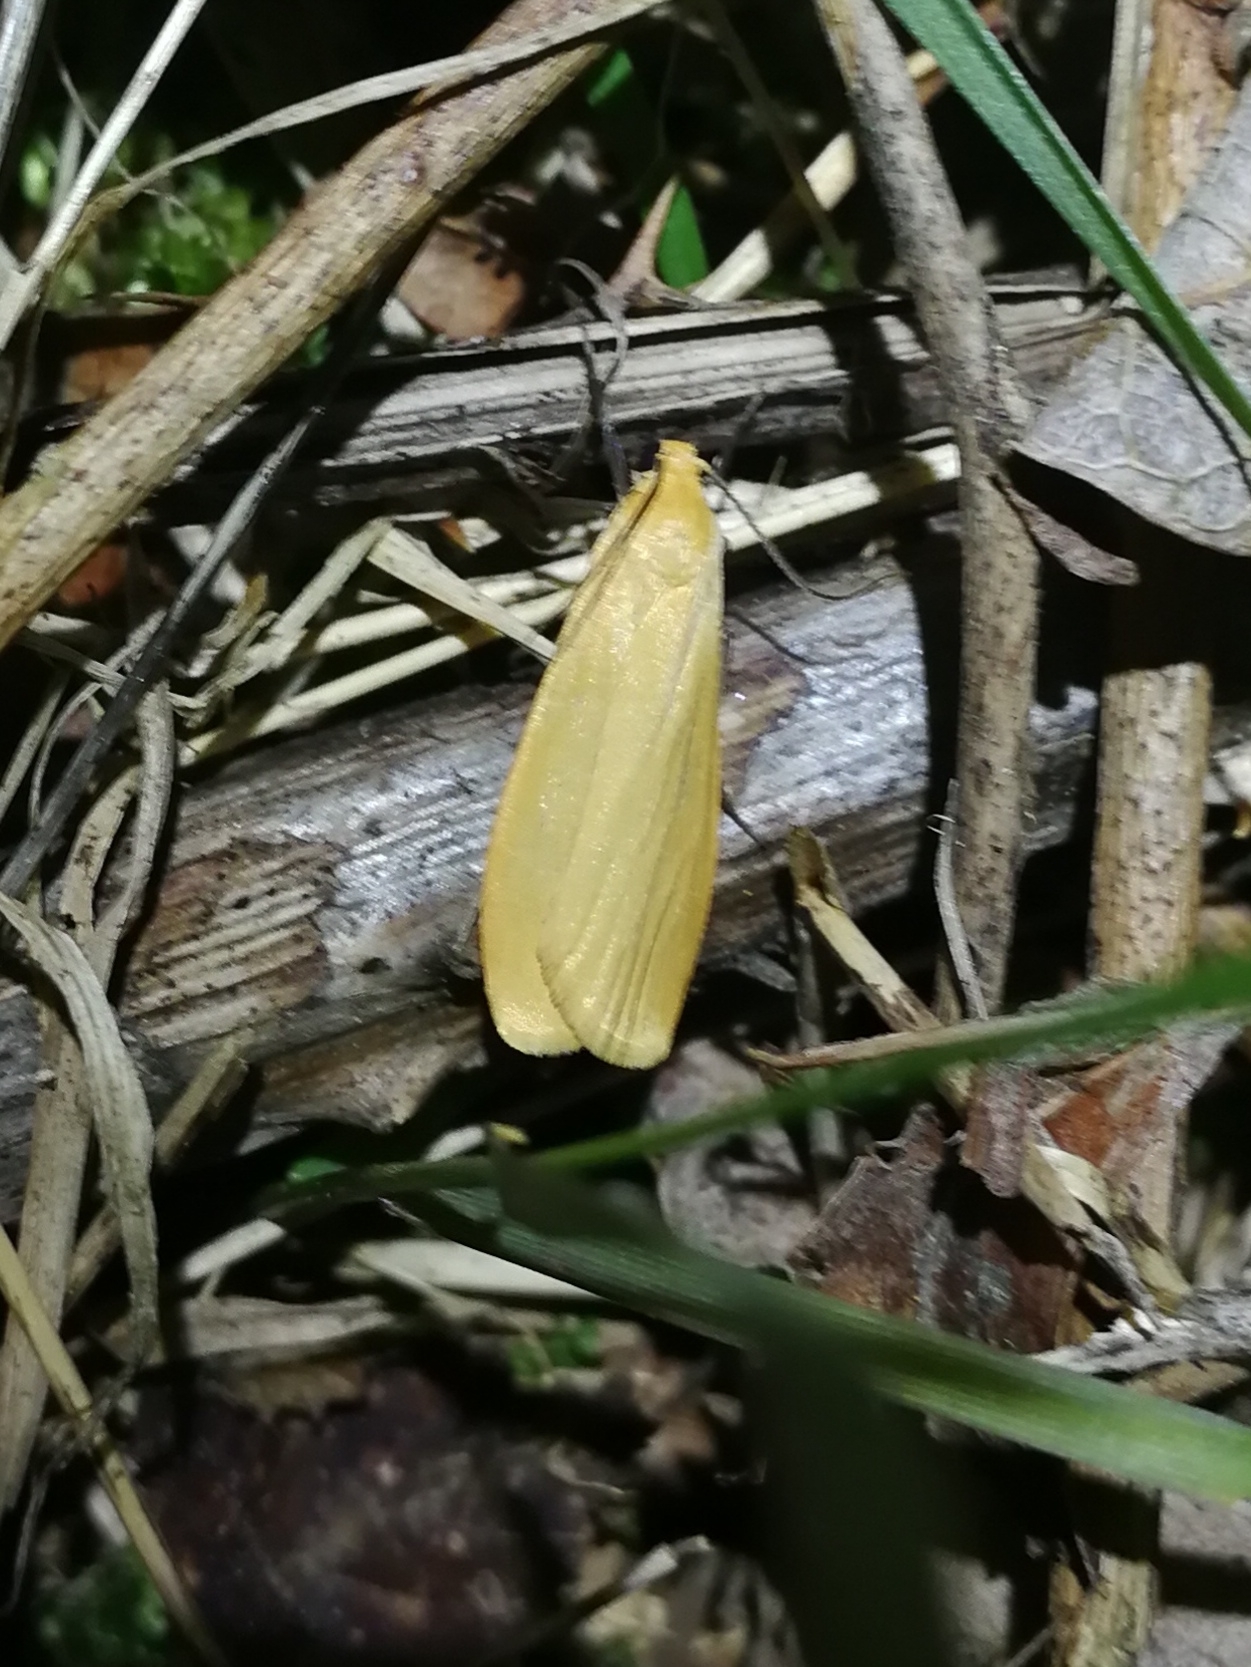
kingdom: Animalia
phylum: Arthropoda
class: Insecta
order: Lepidoptera
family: Erebidae
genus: Wittia
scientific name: Wittia sororcula
